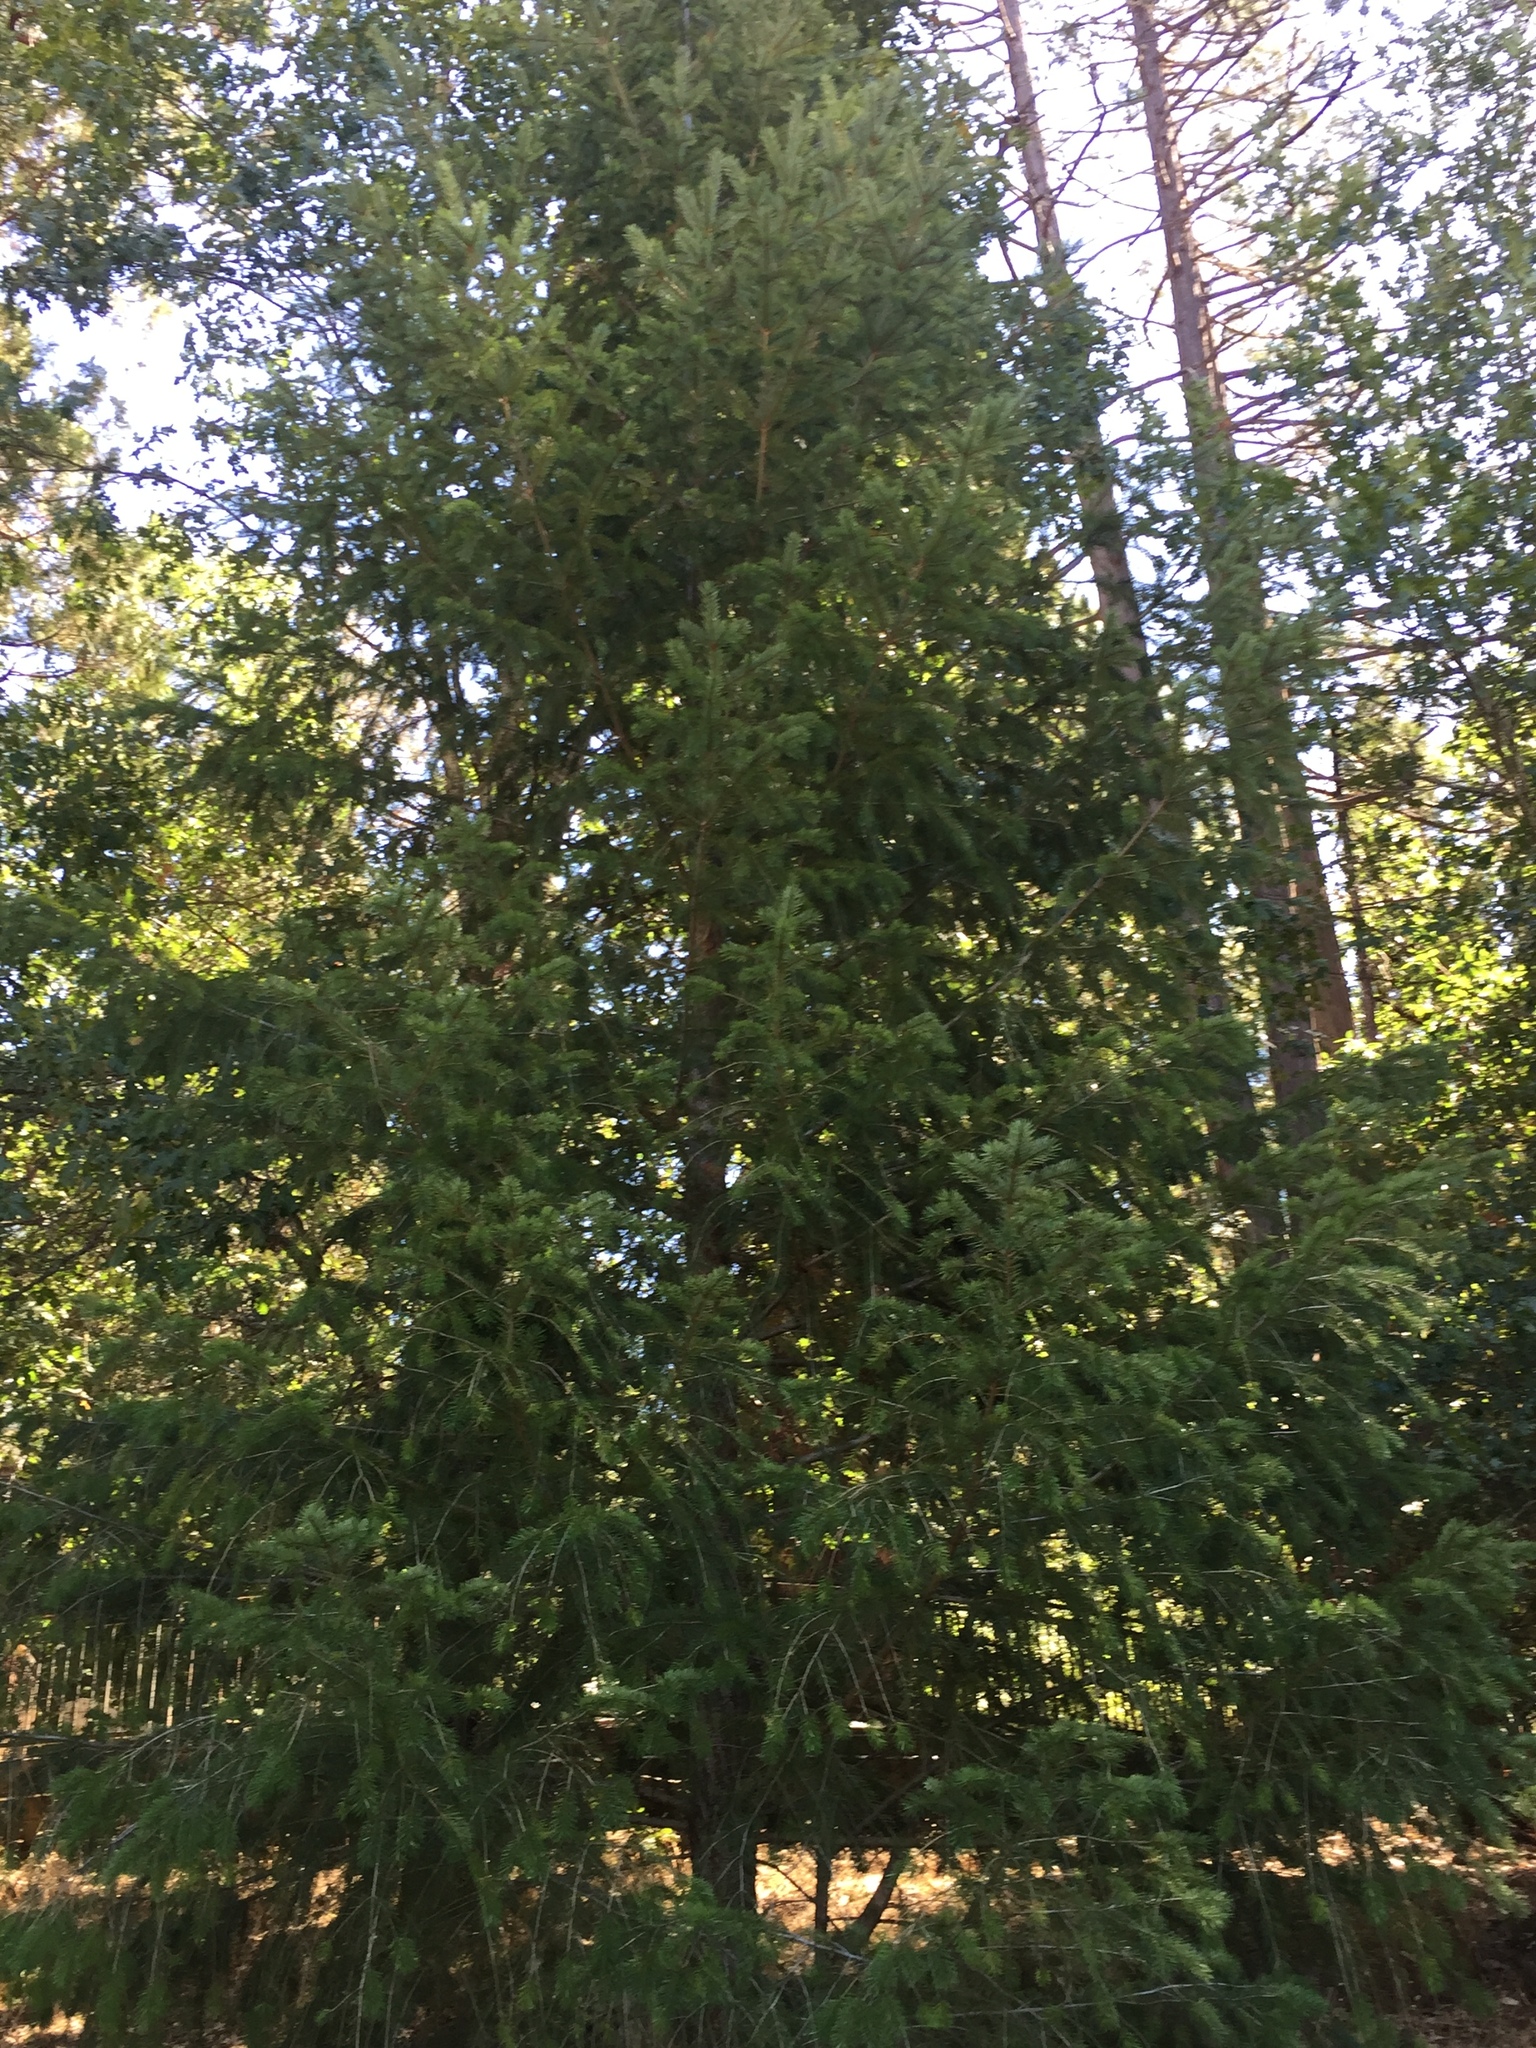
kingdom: Plantae
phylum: Tracheophyta
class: Pinopsida
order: Pinales
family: Pinaceae
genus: Pseudotsuga
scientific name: Pseudotsuga menziesii
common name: Douglas fir
